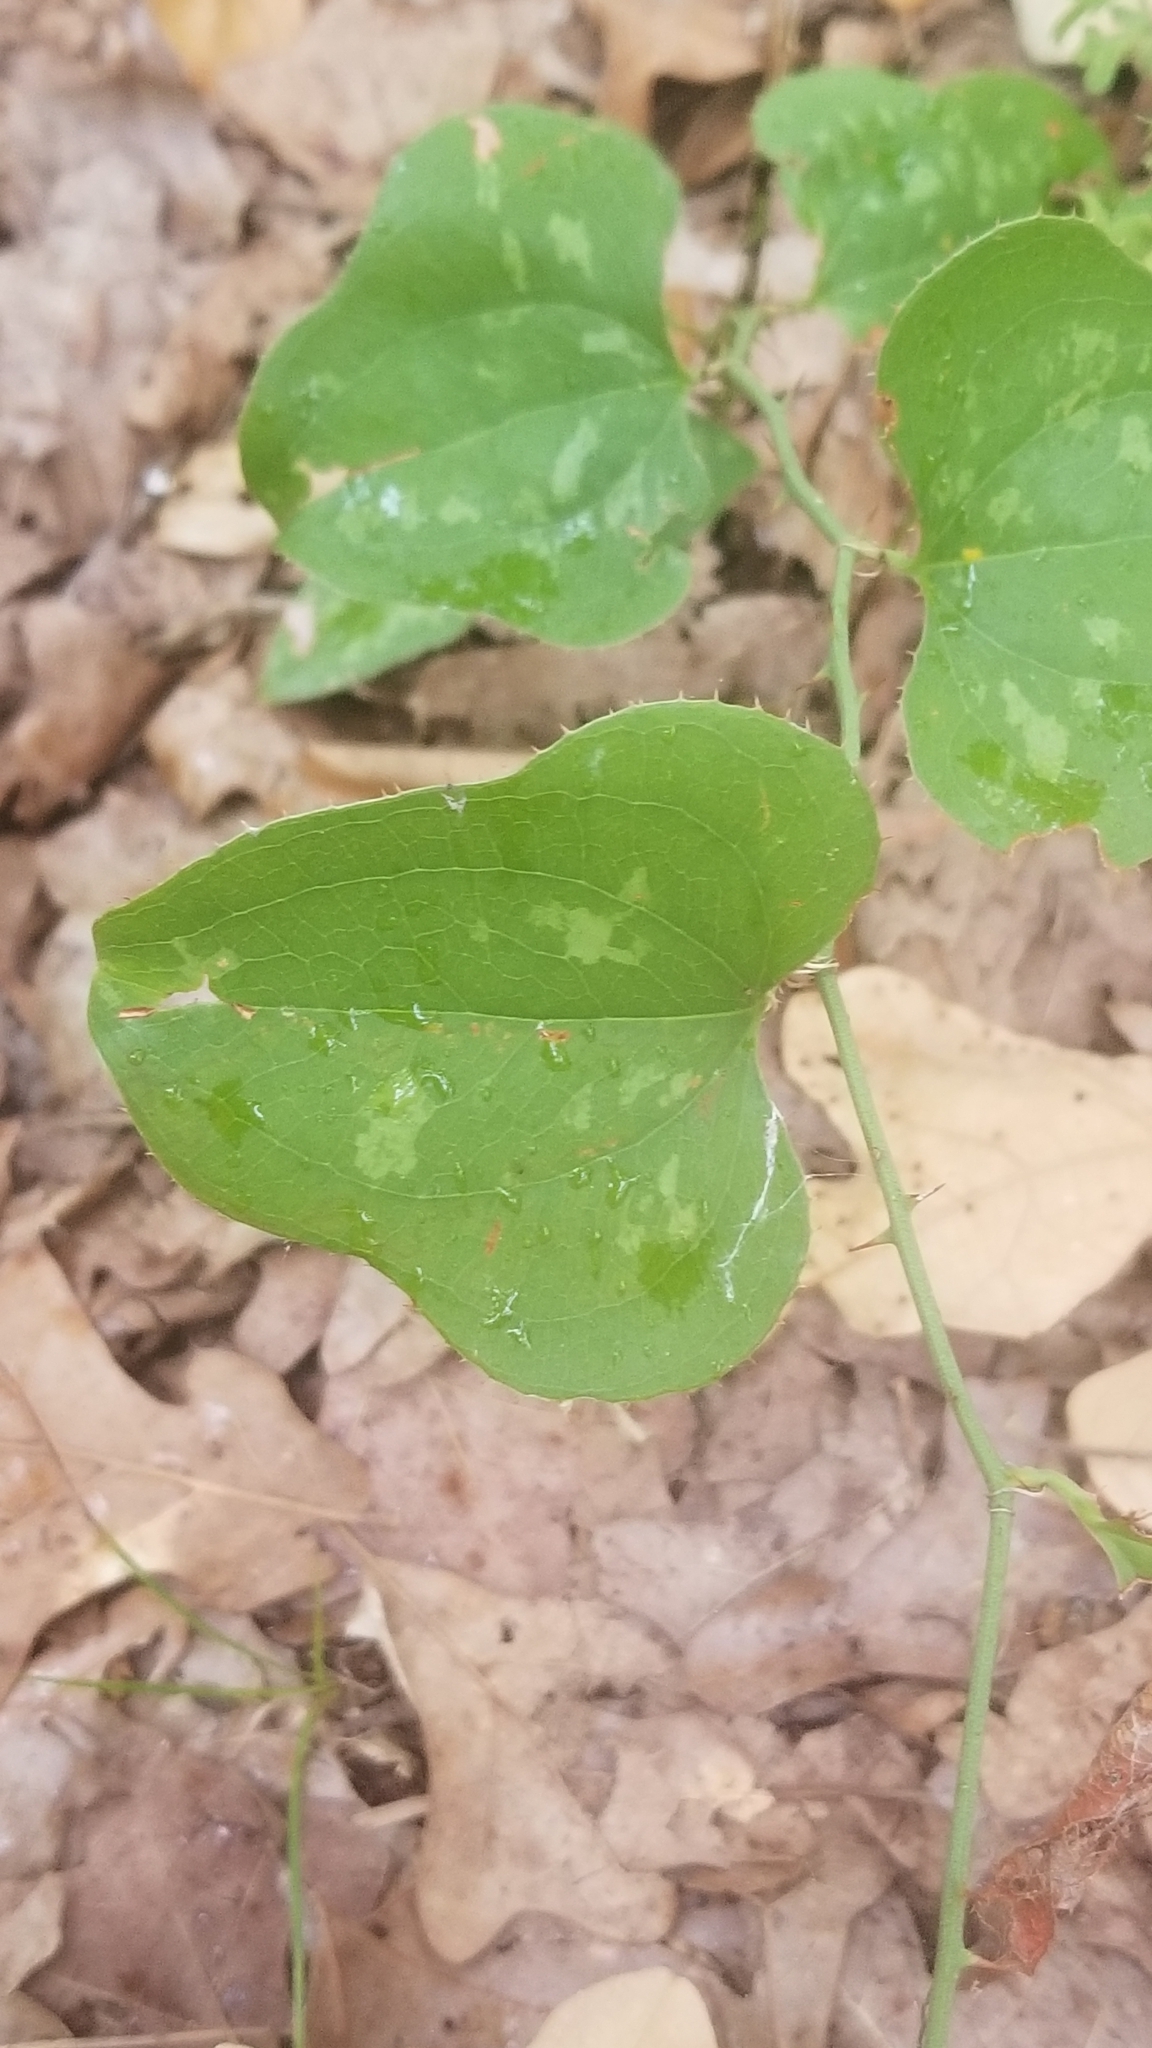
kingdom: Plantae
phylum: Tracheophyta
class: Liliopsida
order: Liliales
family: Smilacaceae
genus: Smilax
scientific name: Smilax bona-nox
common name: Catbrier
